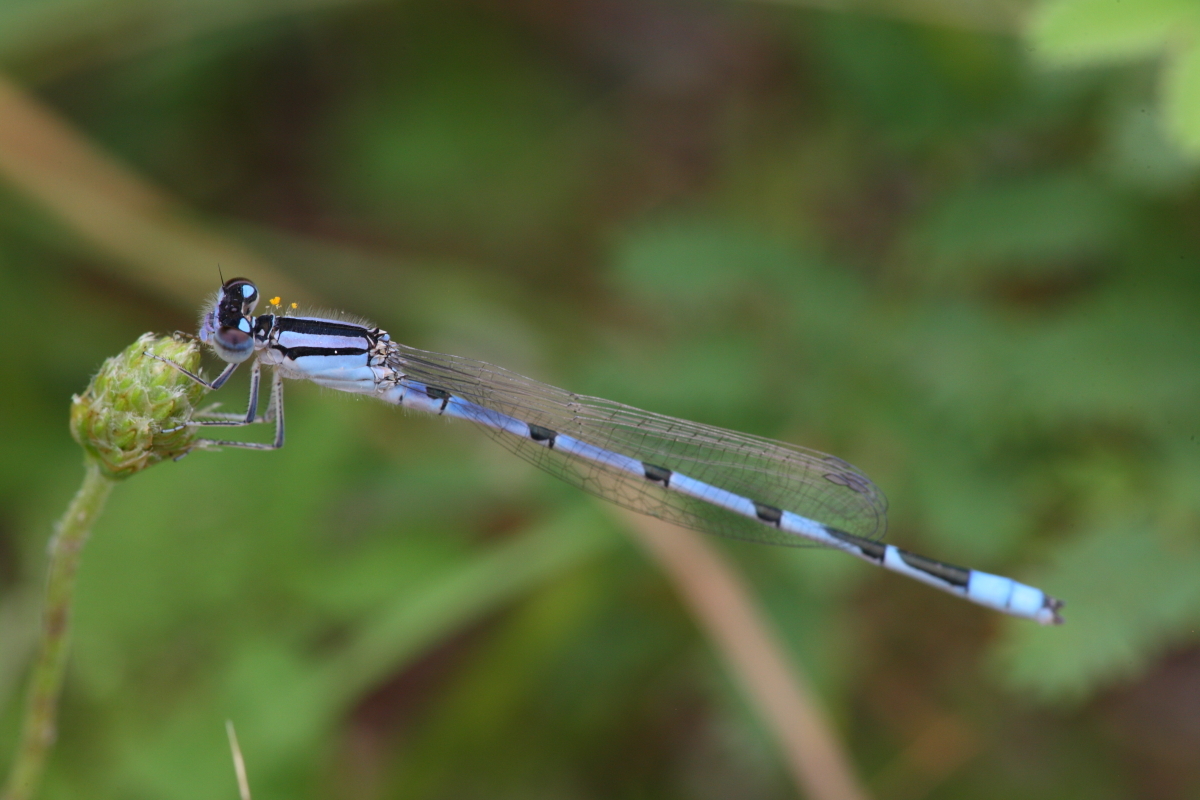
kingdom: Animalia
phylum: Arthropoda
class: Insecta
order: Odonata
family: Coenagrionidae
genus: Enallagma
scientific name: Enallagma civile
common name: Damselfly
